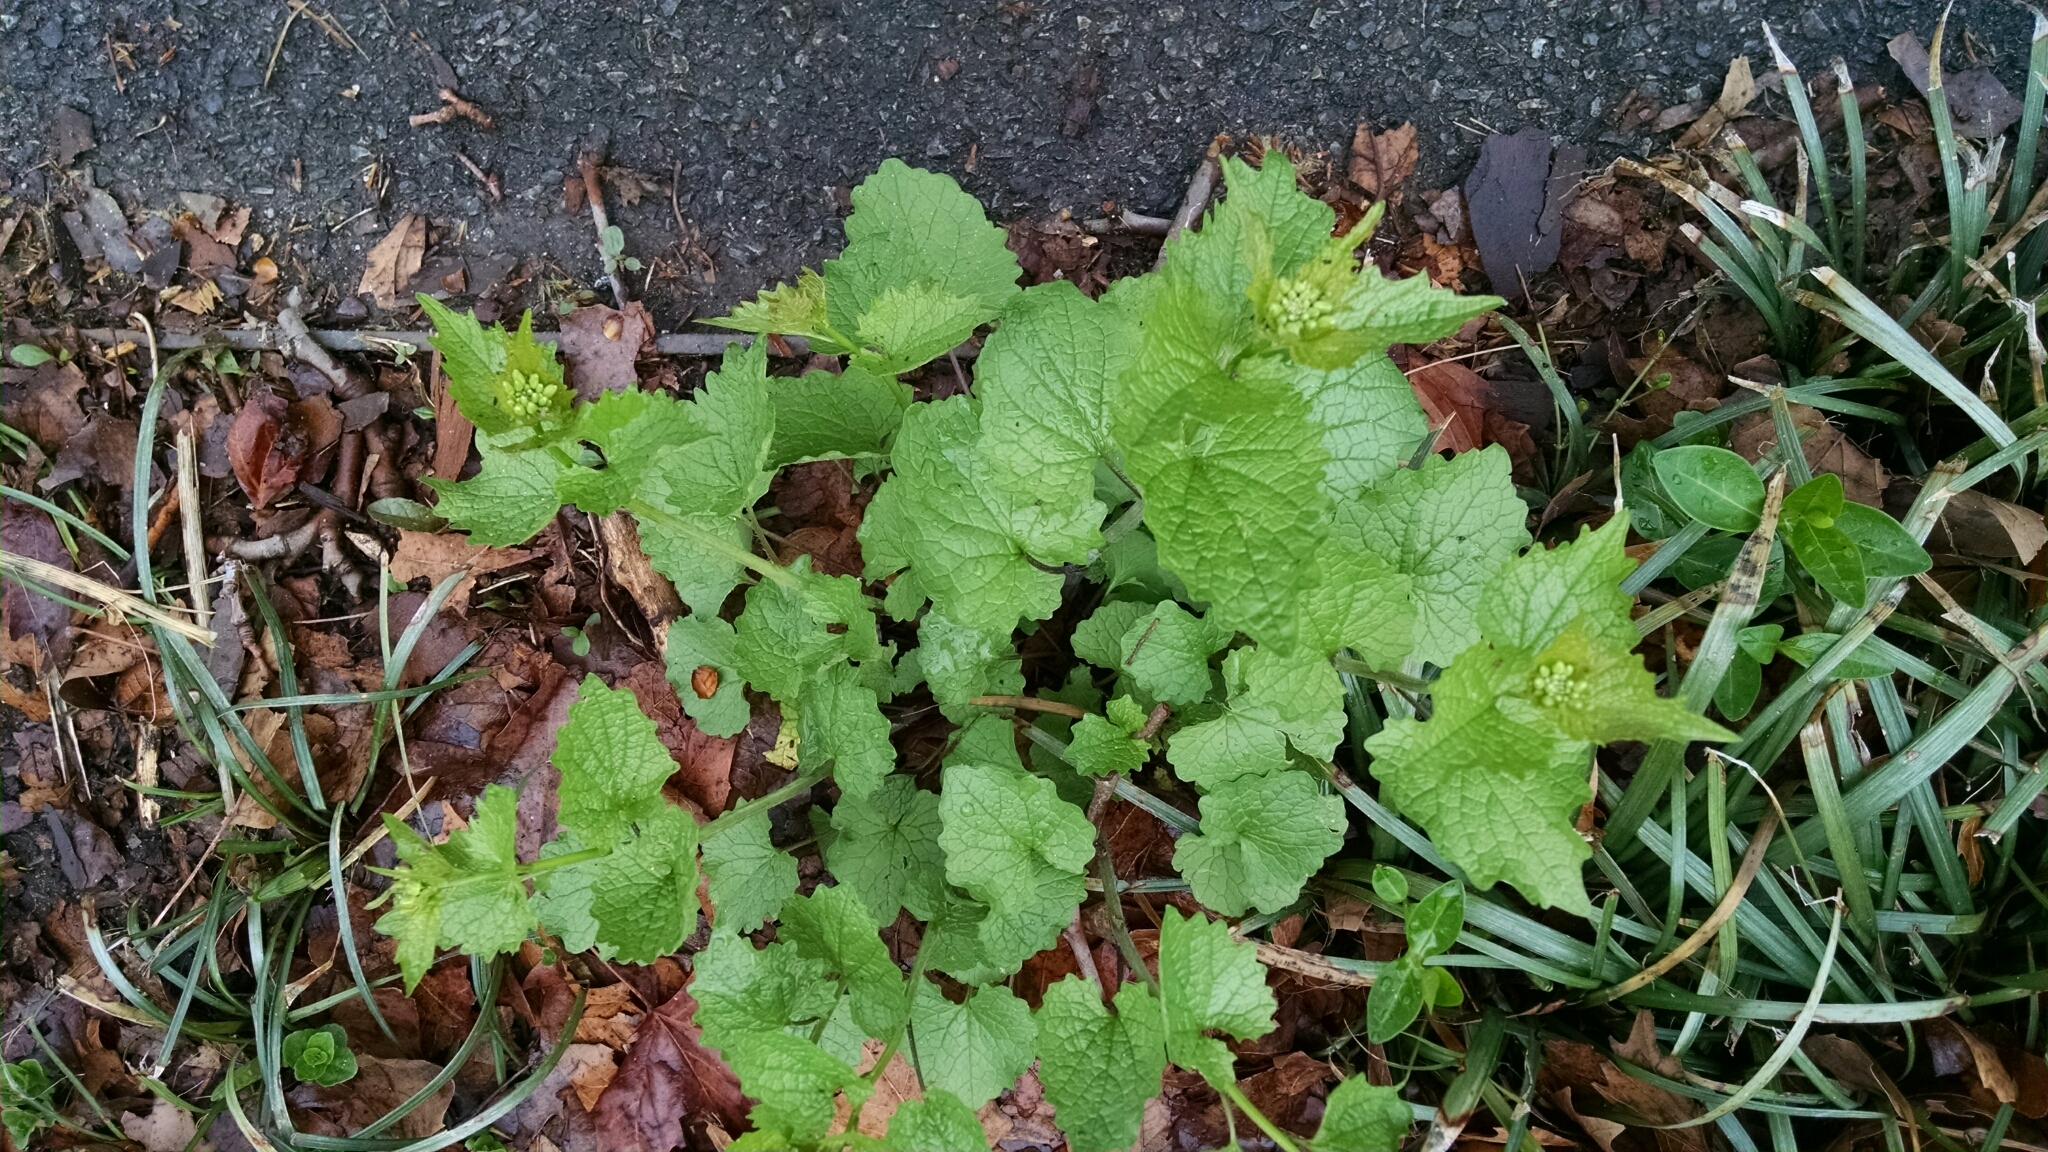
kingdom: Plantae
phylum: Tracheophyta
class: Magnoliopsida
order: Brassicales
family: Brassicaceae
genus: Alliaria
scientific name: Alliaria petiolata
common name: Garlic mustard
